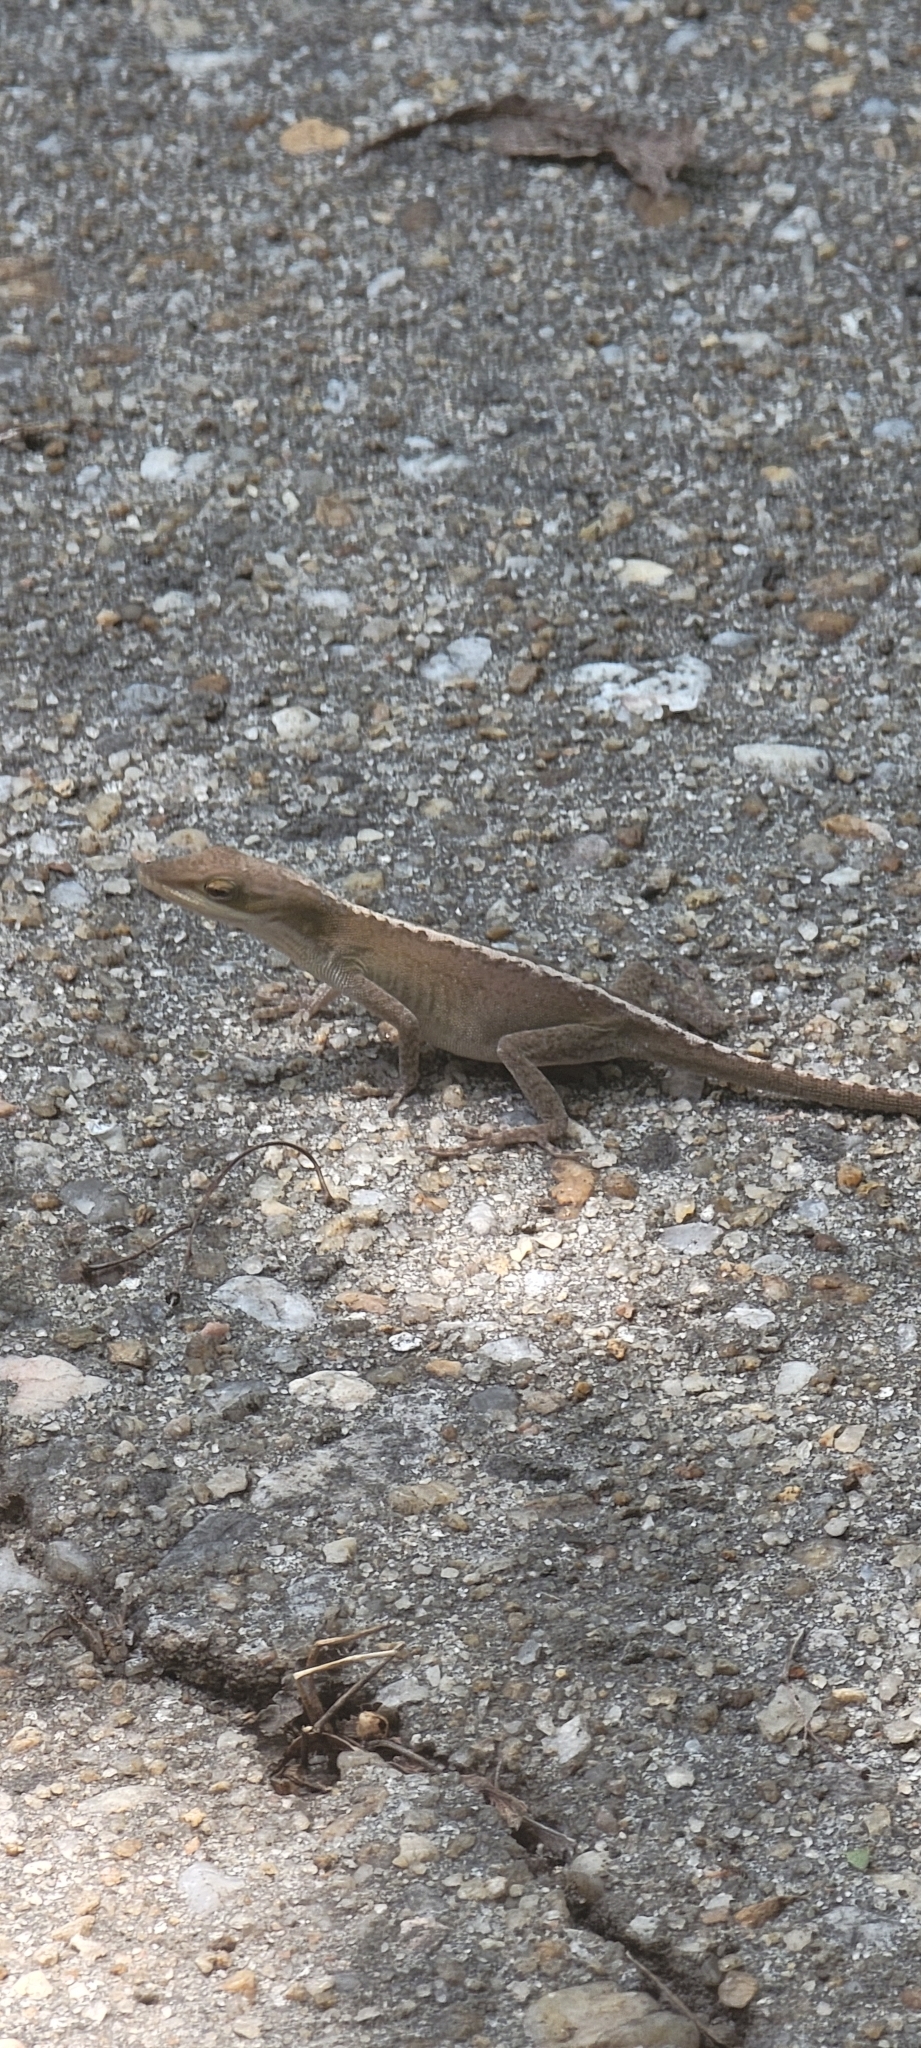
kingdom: Animalia
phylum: Chordata
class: Squamata
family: Dactyloidae
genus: Anolis
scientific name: Anolis carolinensis
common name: Green anole
